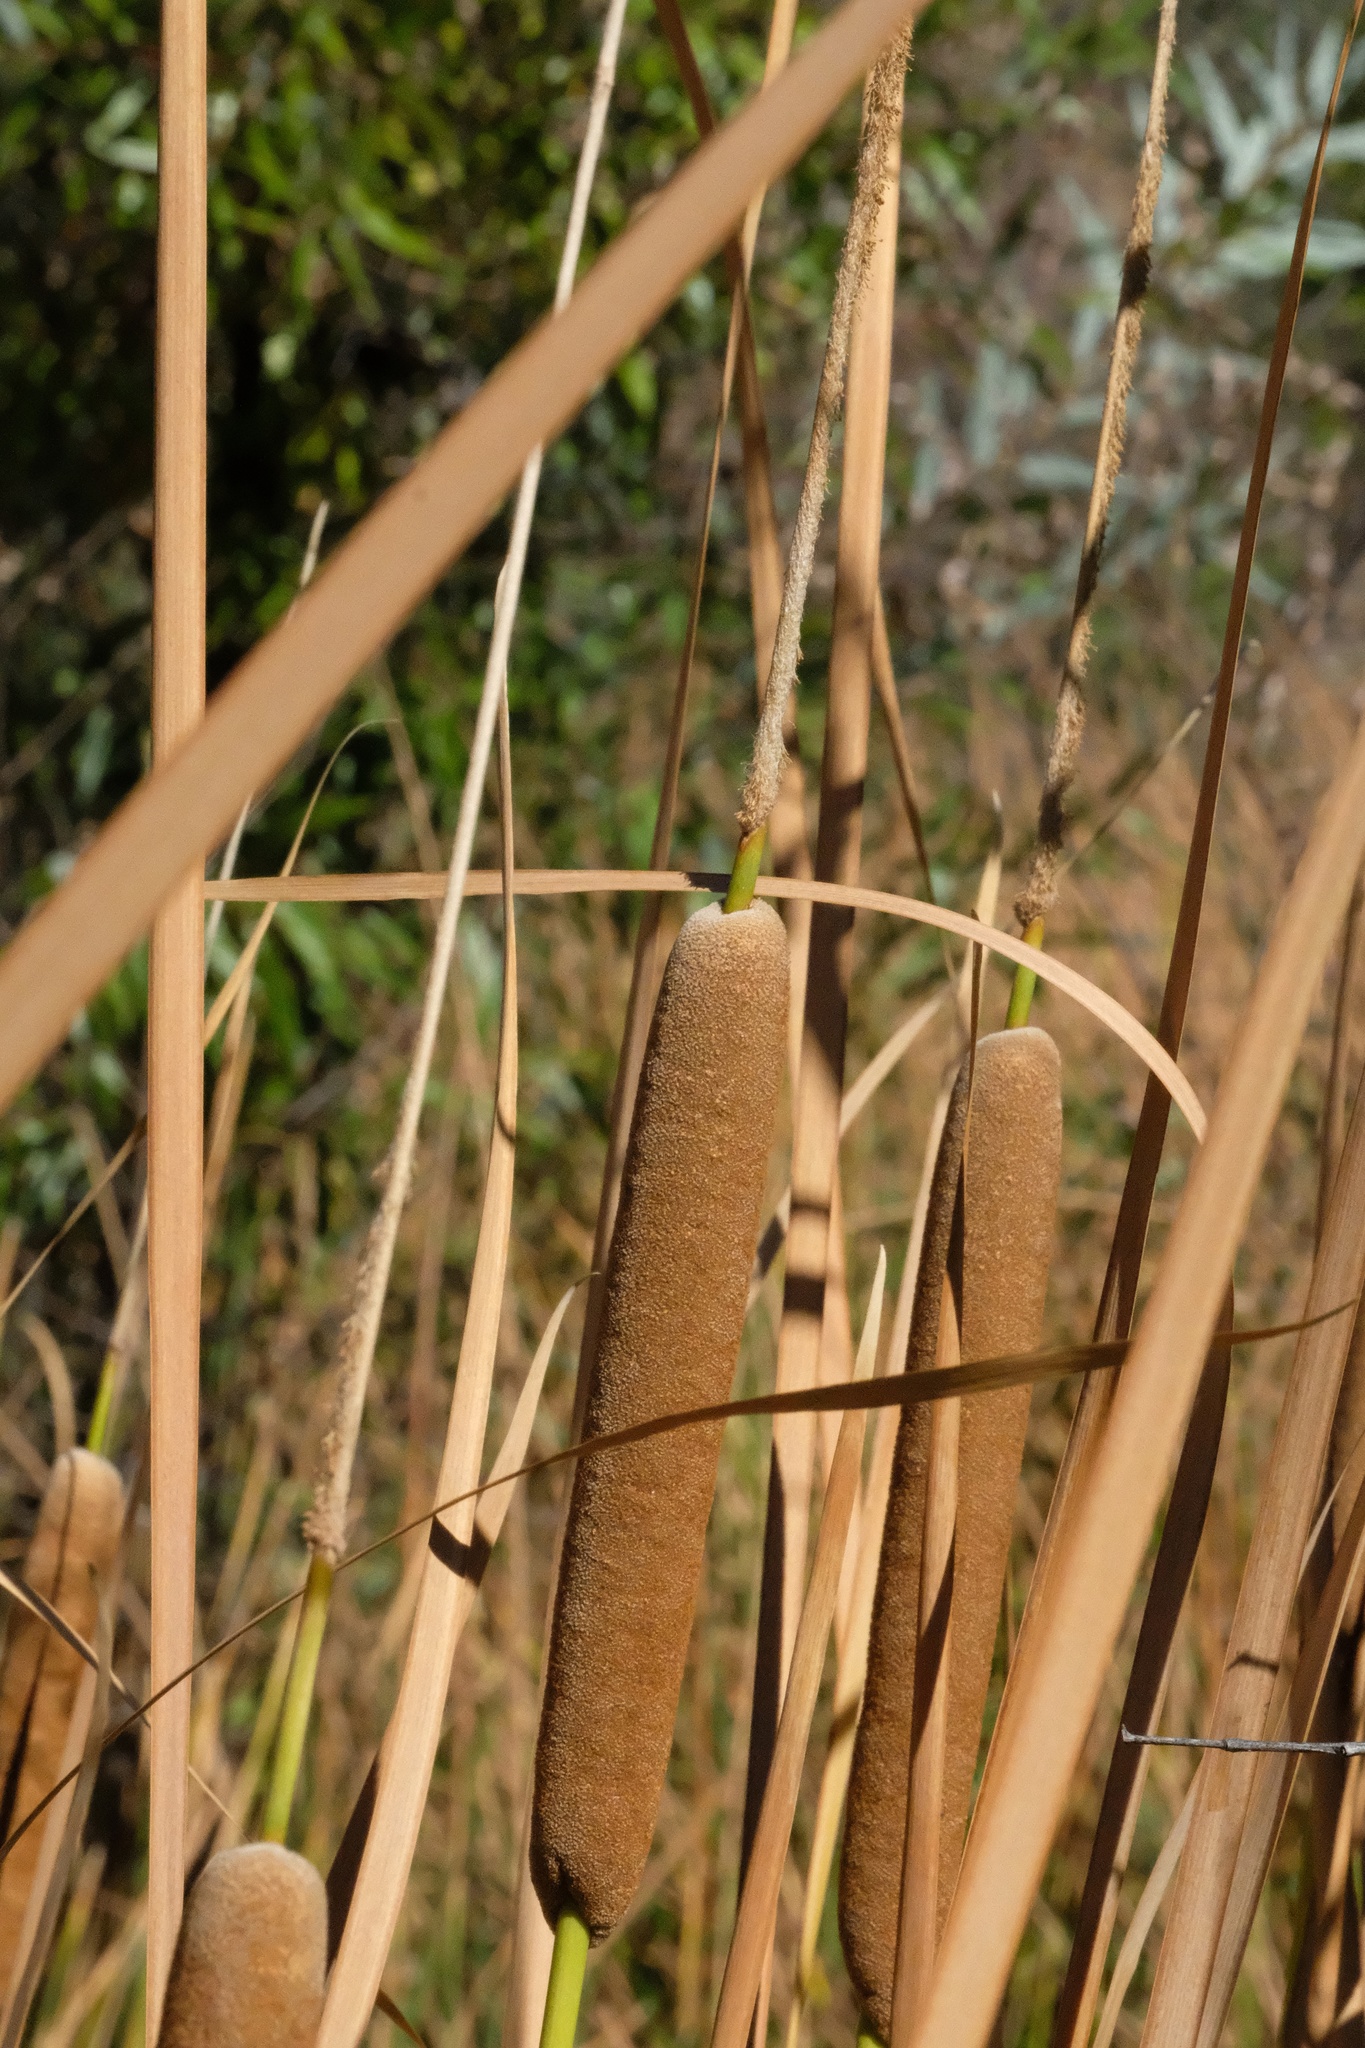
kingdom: Plantae
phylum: Tracheophyta
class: Liliopsida
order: Poales
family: Typhaceae
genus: Typha
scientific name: Typha domingensis
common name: Southern cattail
